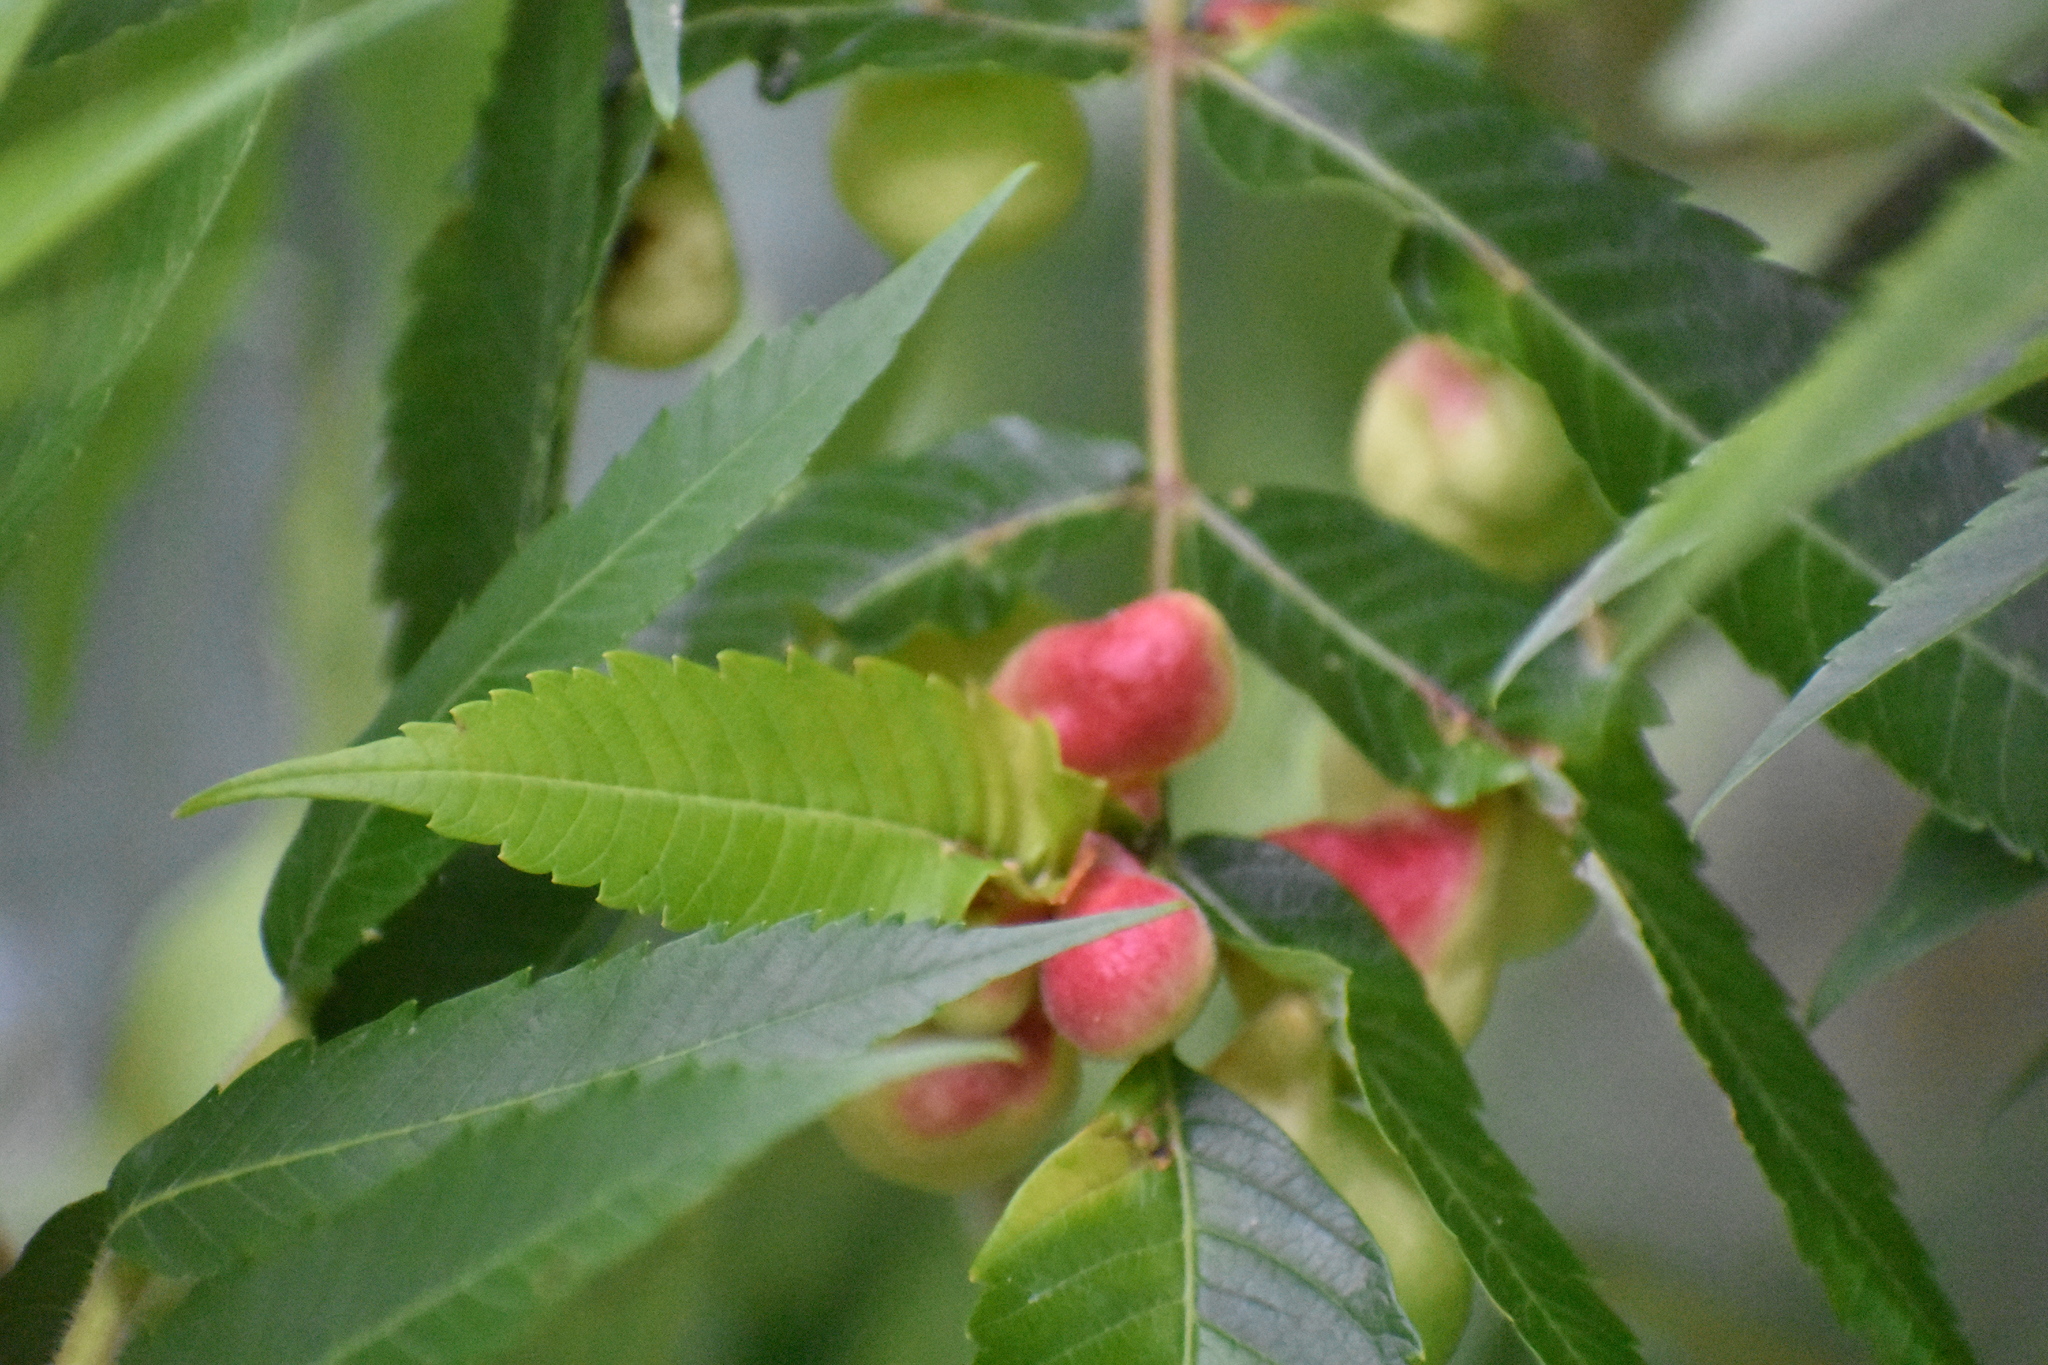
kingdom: Animalia
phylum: Arthropoda
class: Insecta
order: Hemiptera
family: Aphididae
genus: Melaphis
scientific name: Melaphis rhois
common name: Sumac gall aphid
